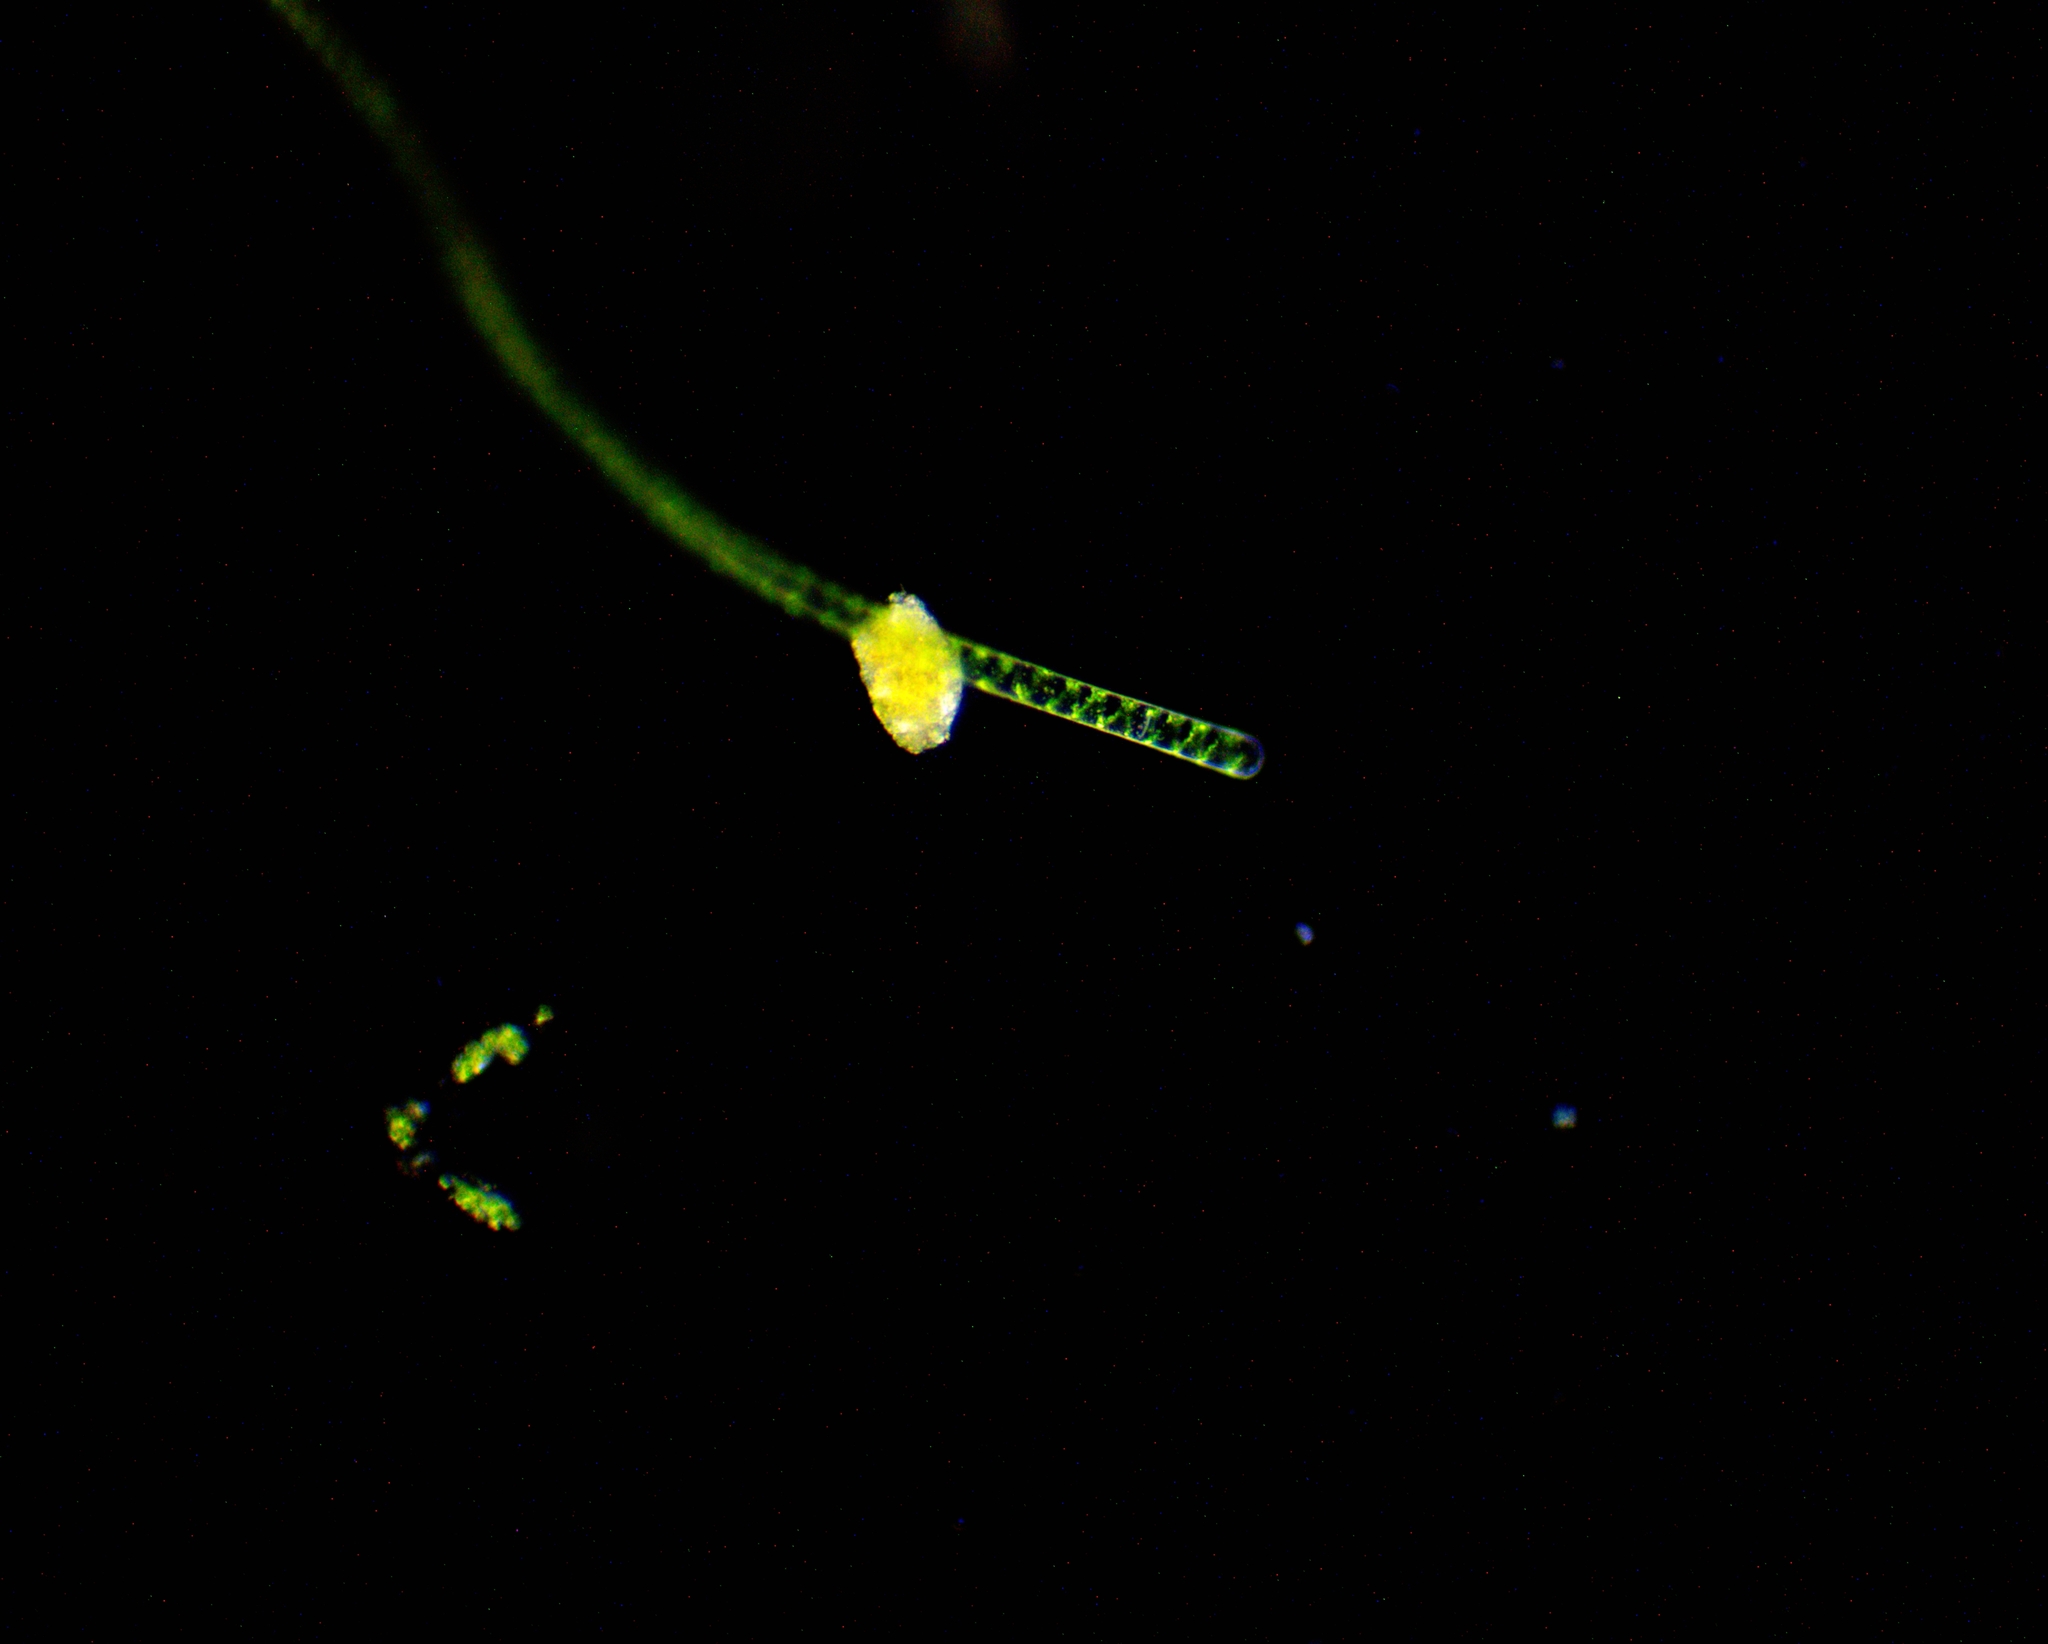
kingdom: Plantae
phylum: Charophyta
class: Zygnematophyceae
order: Zygnematales
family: Zygnemataceae
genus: Spirogyra
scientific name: Spirogyra
